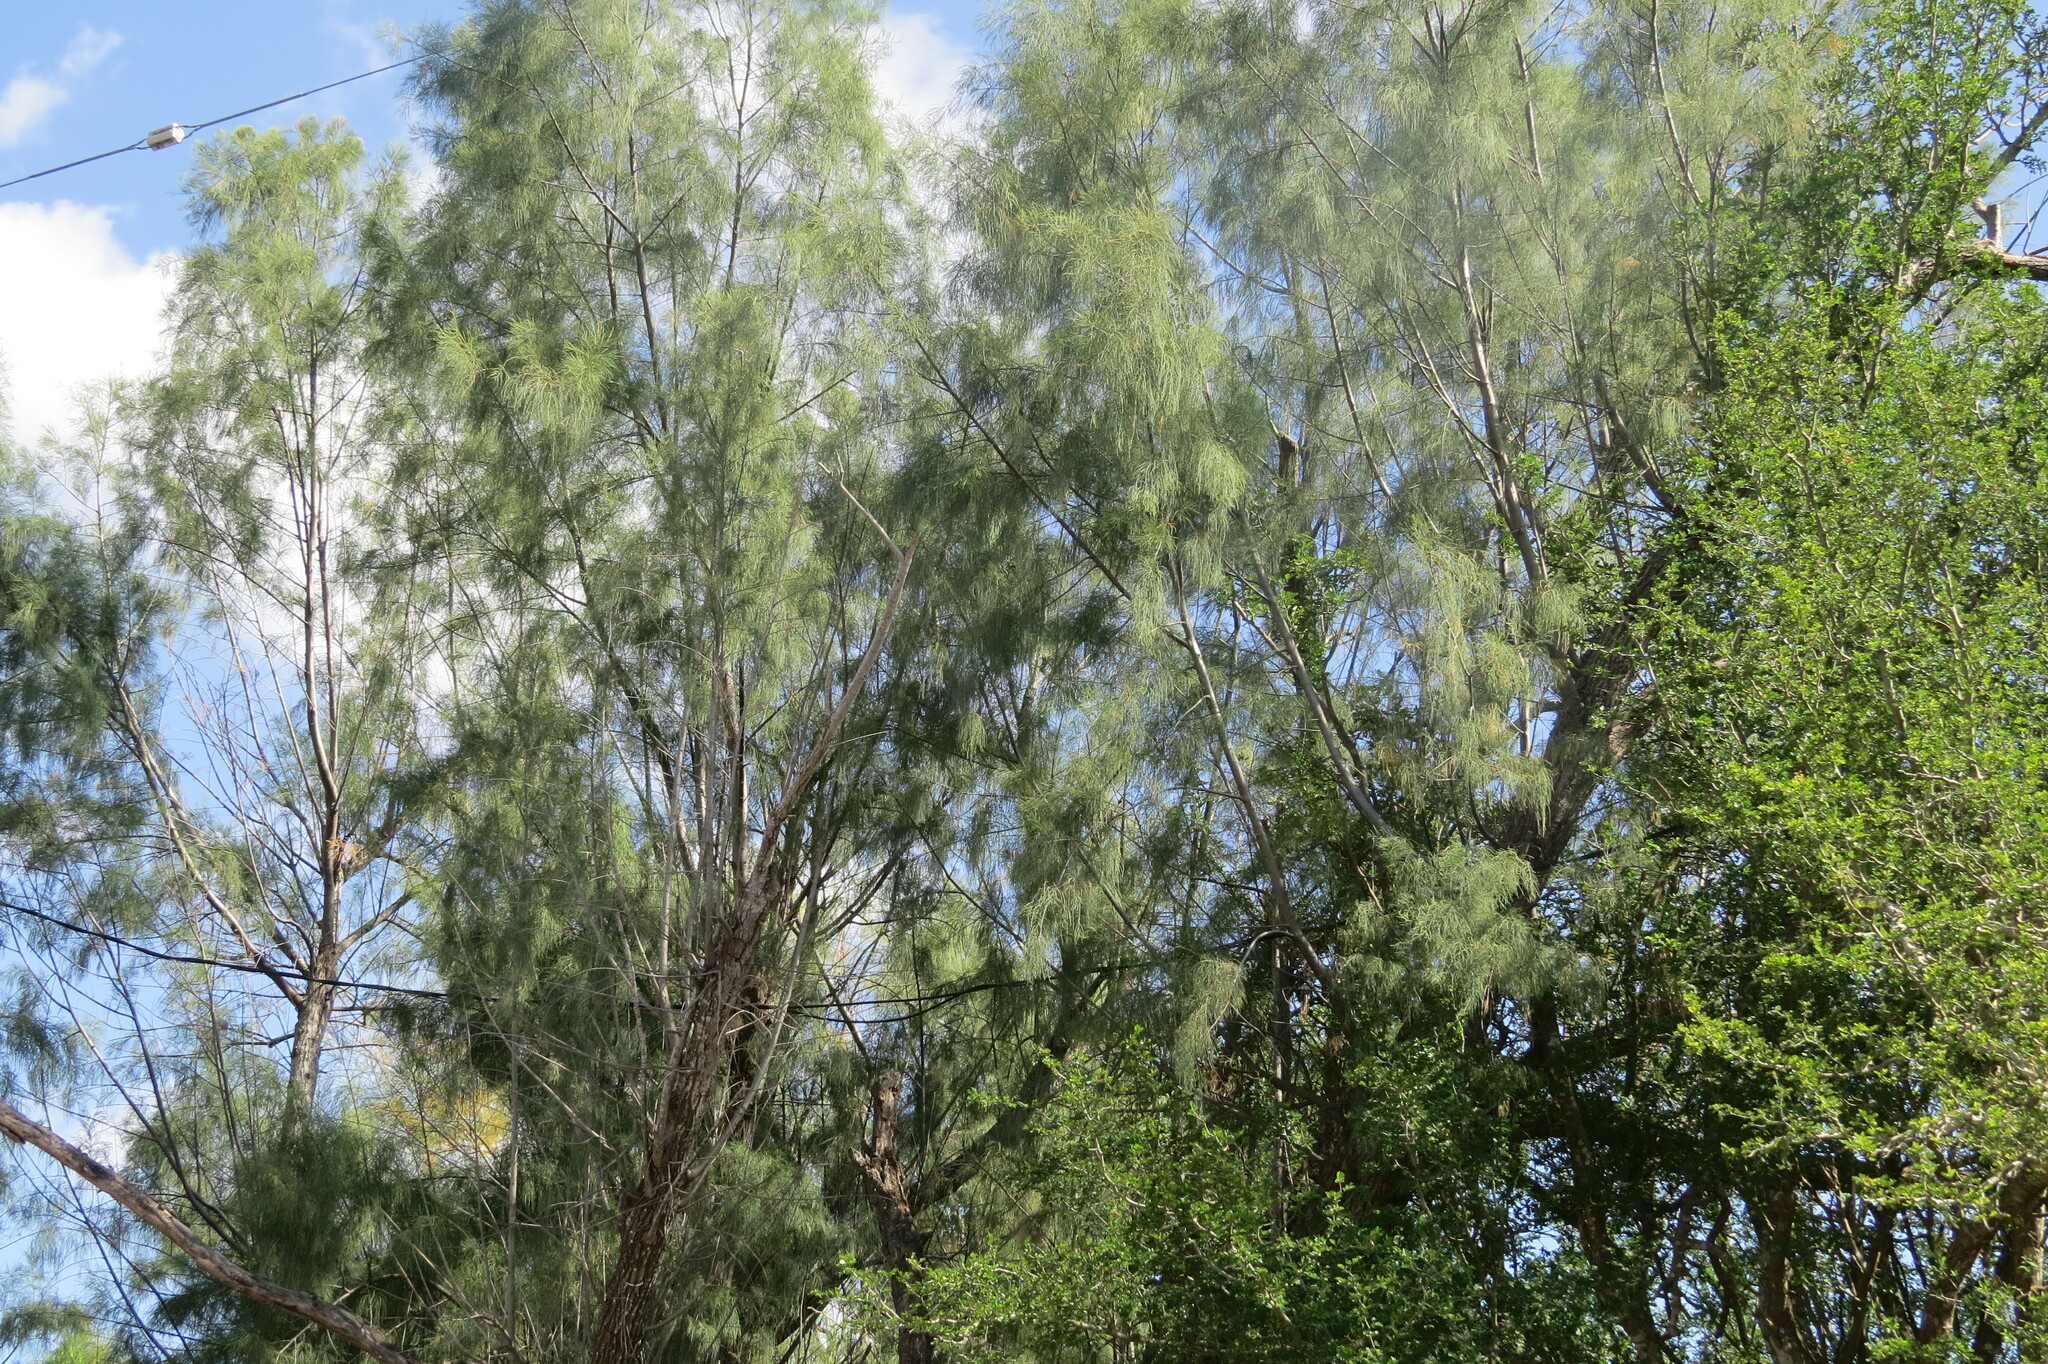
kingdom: Plantae
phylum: Tracheophyta
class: Magnoliopsida
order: Caryophyllales
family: Tamaricaceae
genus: Tamarix
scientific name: Tamarix aphylla
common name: Athel tamarisk
